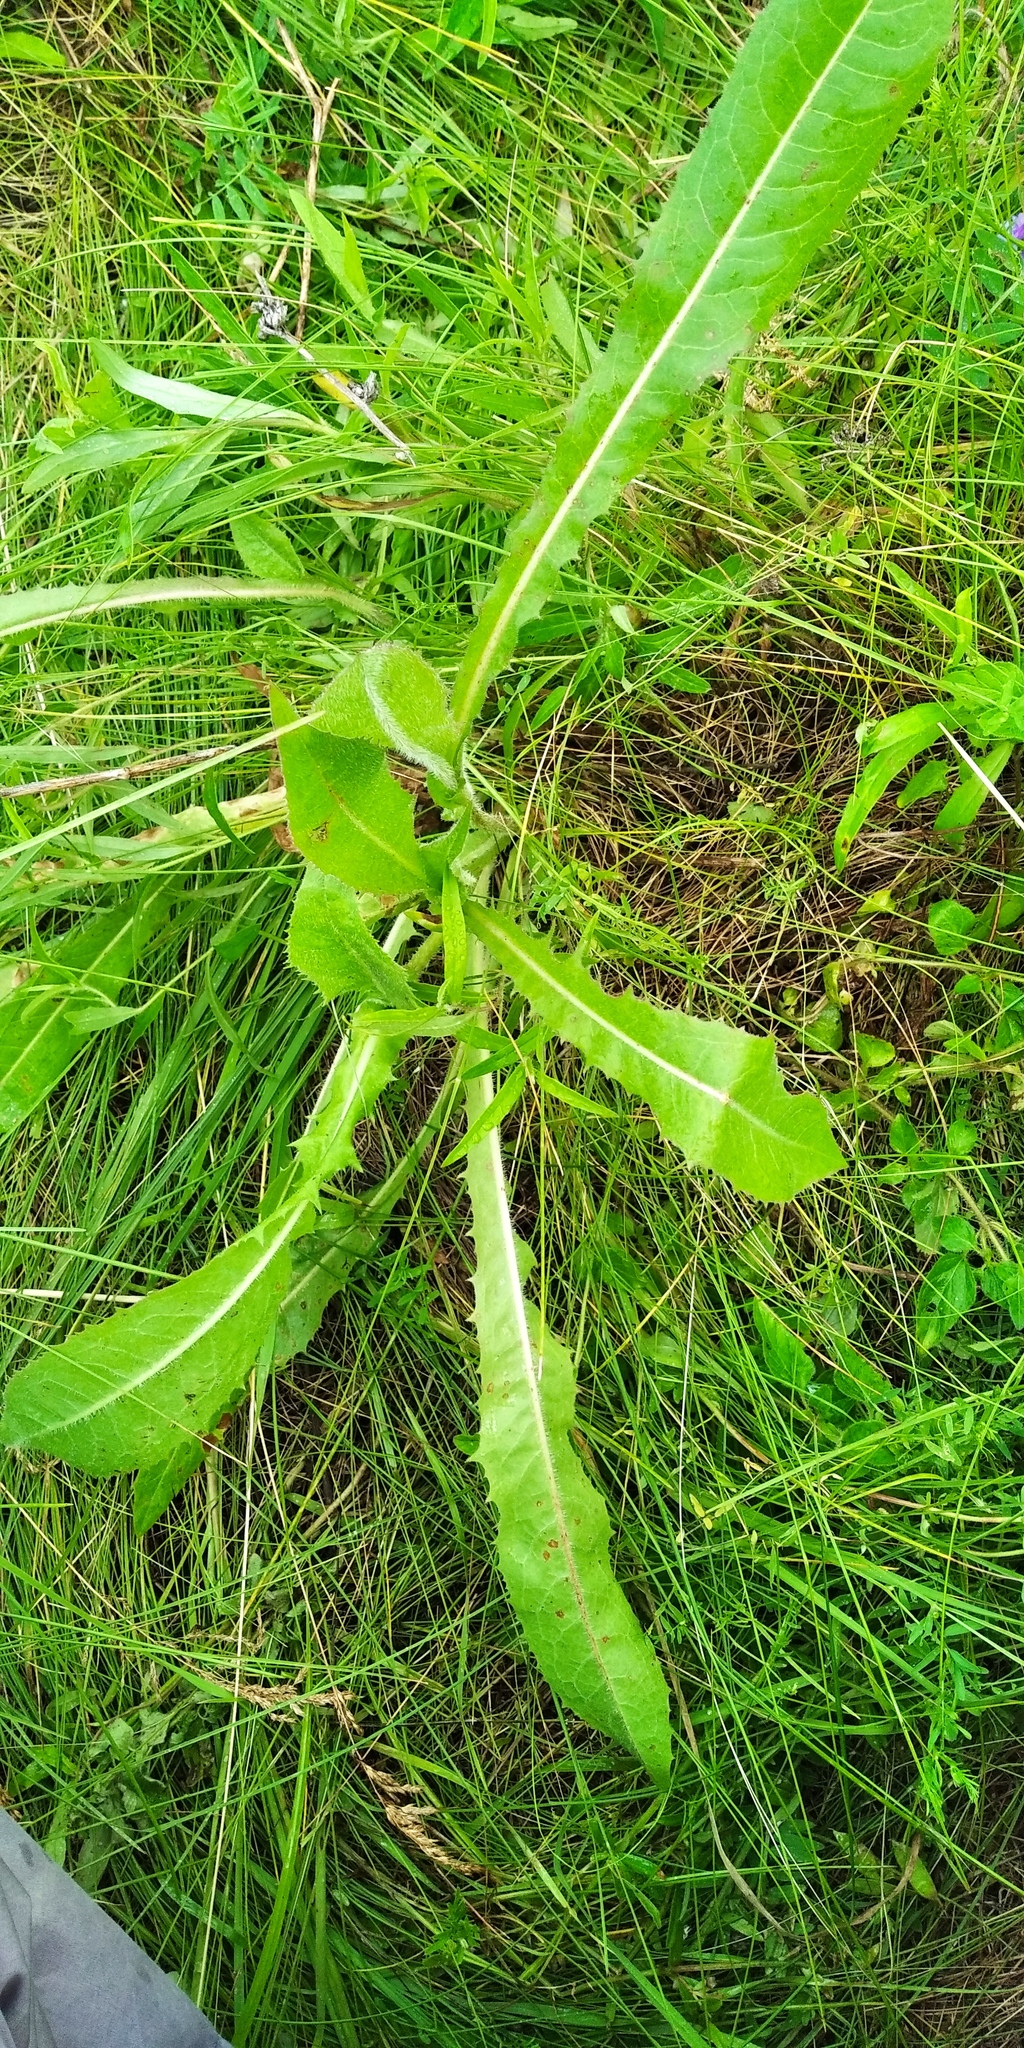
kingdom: Plantae
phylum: Tracheophyta
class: Magnoliopsida
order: Asterales
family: Asteraceae
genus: Cichorium
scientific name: Cichorium intybus
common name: Chicory
